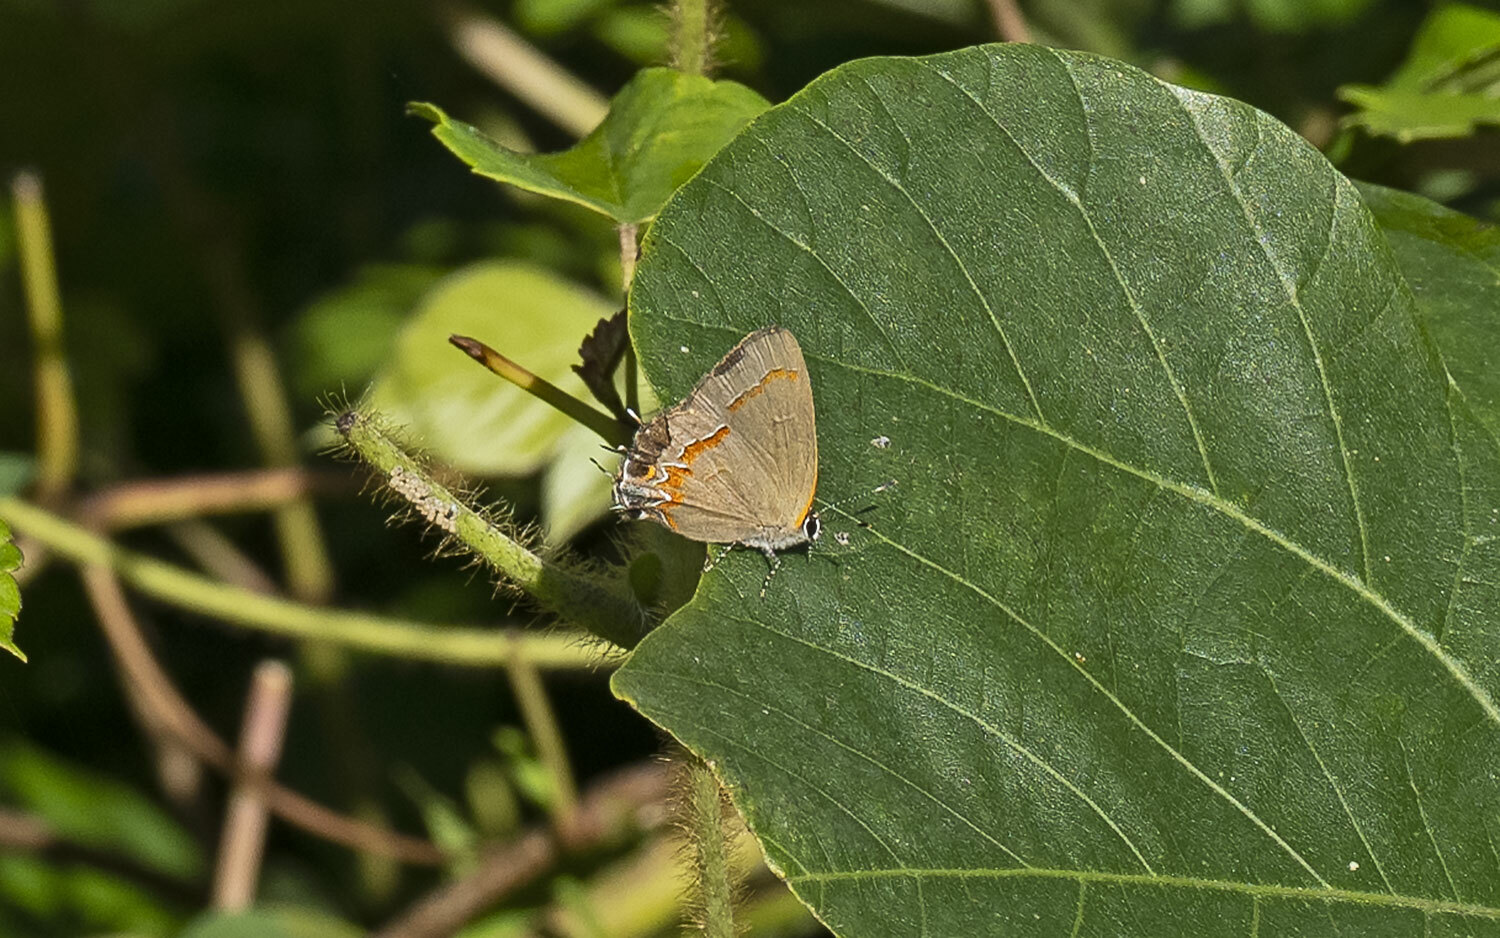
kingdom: Animalia
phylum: Arthropoda
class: Insecta
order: Lepidoptera
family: Lycaenidae
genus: Calycopis
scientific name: Calycopis cecrops
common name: Red-banded hairstreak
